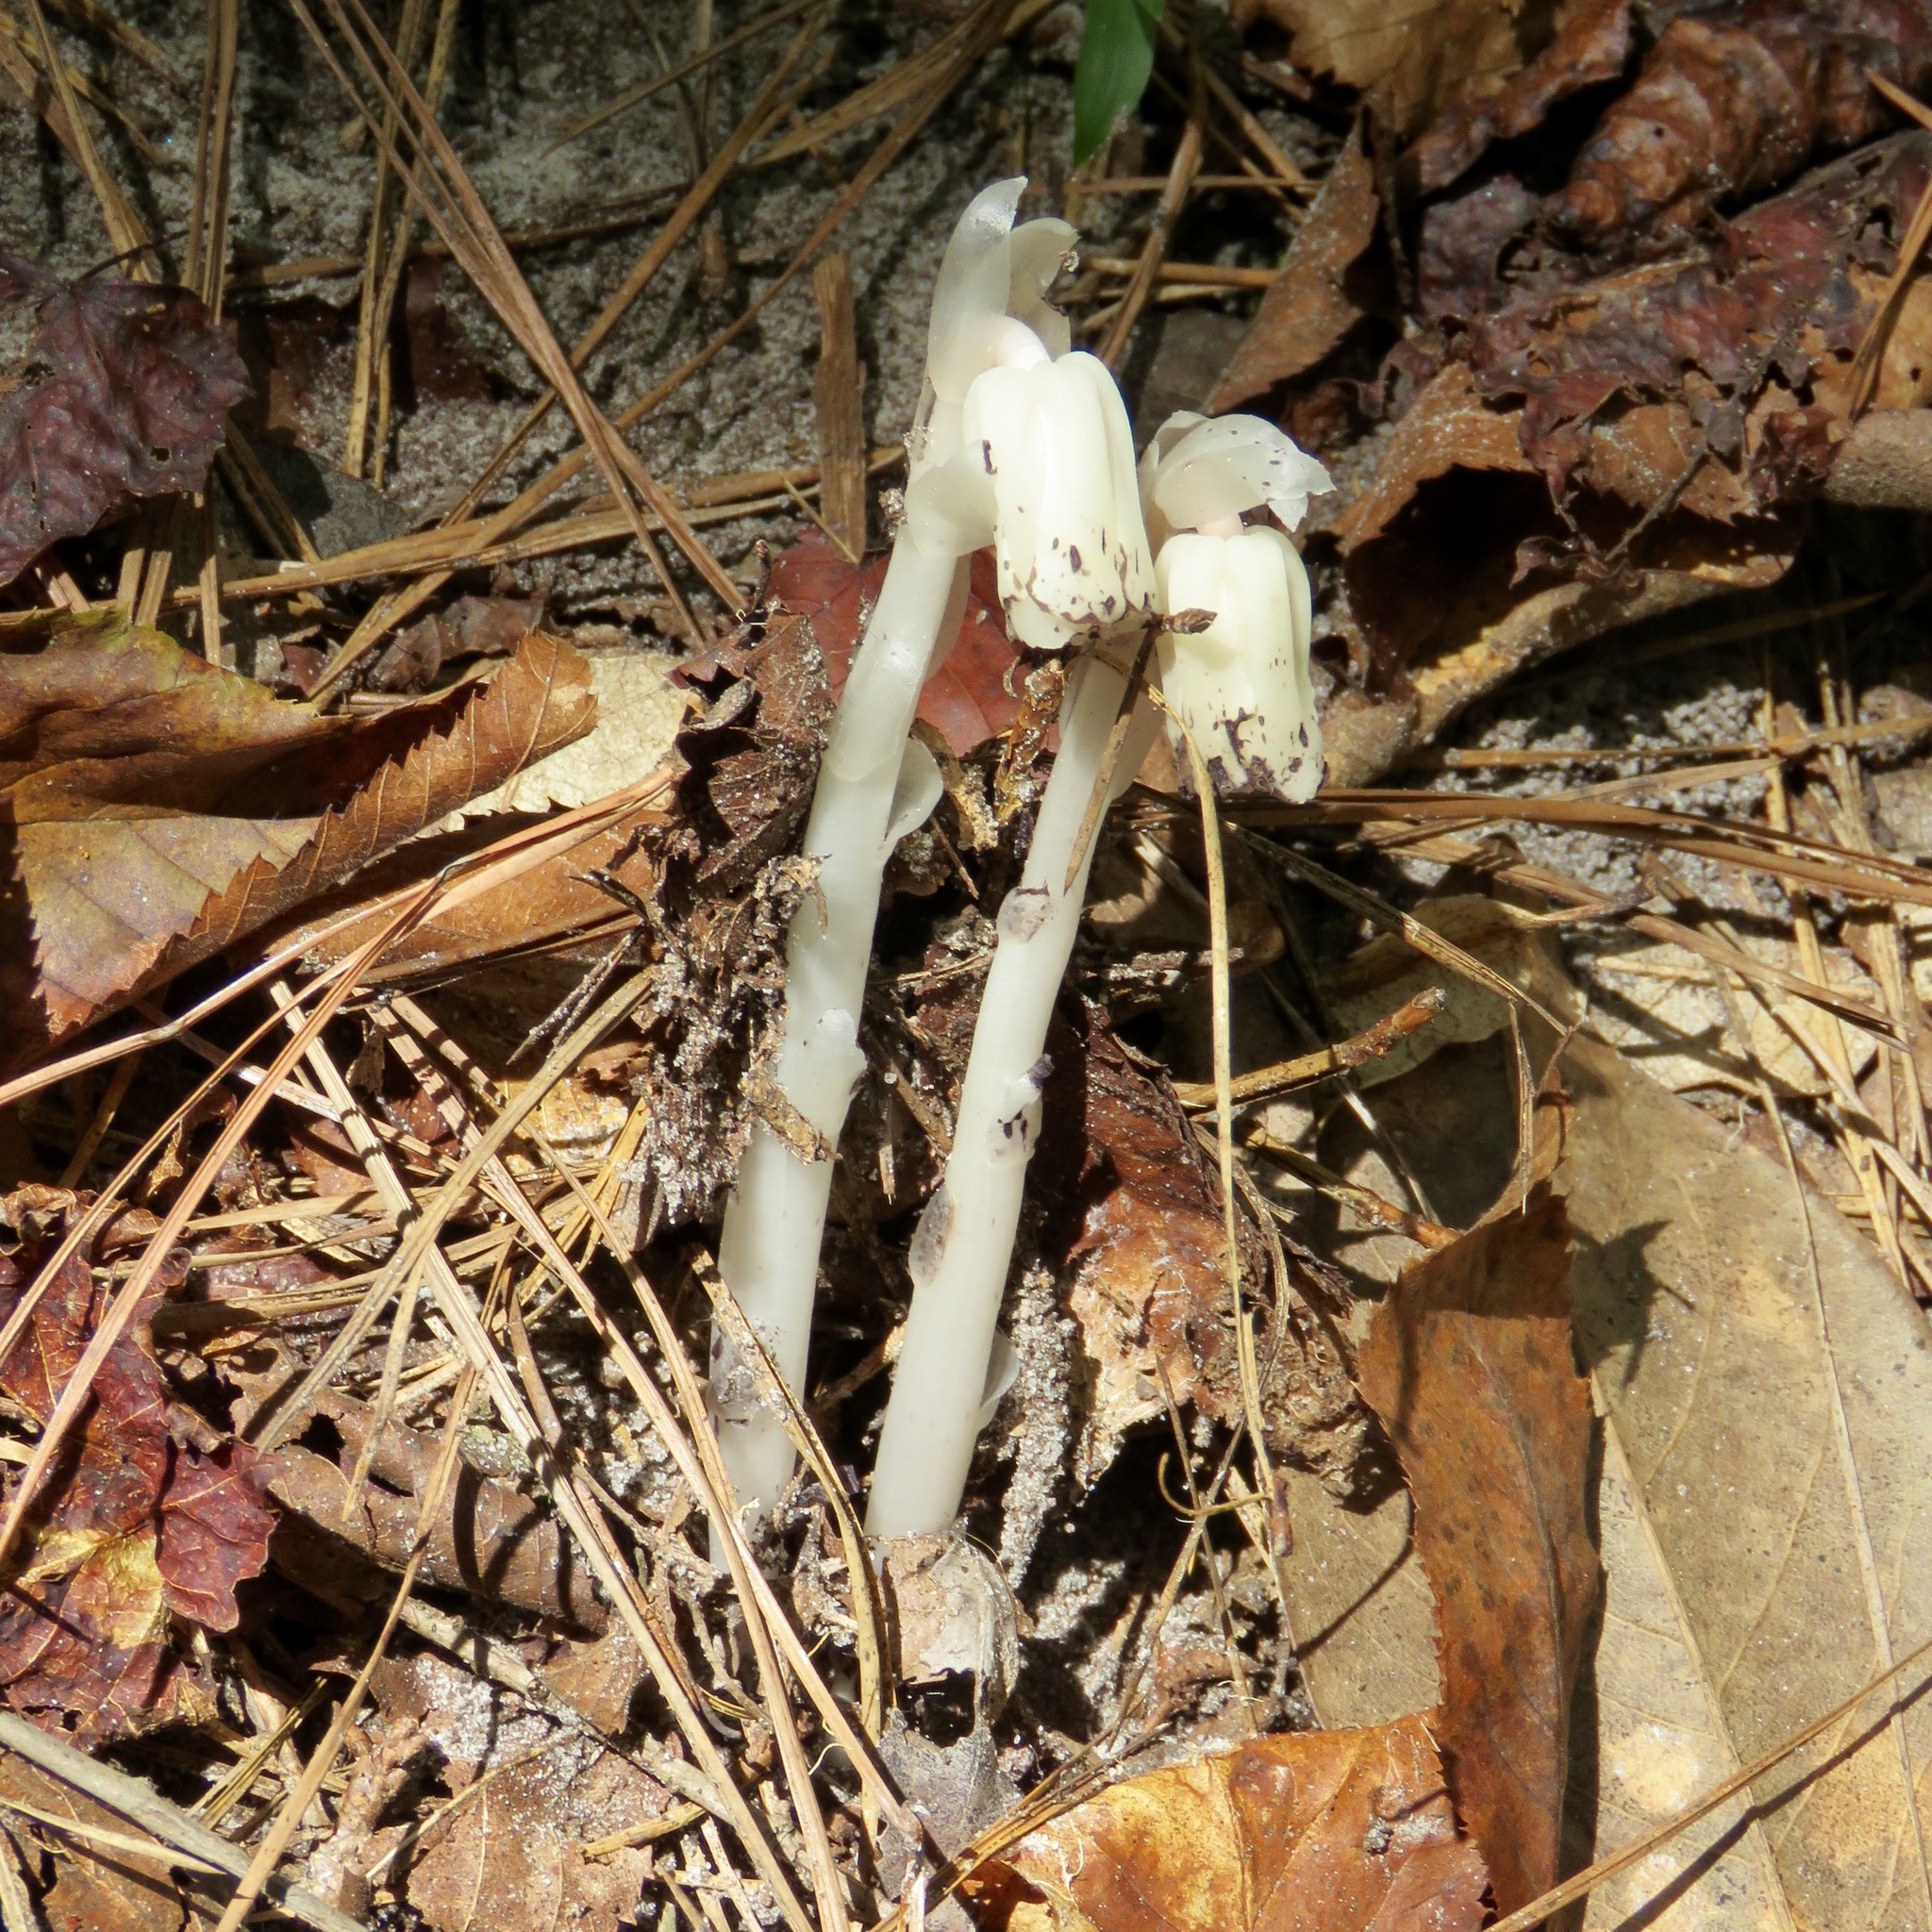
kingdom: Plantae
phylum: Tracheophyta
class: Magnoliopsida
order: Ericales
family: Ericaceae
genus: Monotropa
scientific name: Monotropa uniflora
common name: Convulsion root
